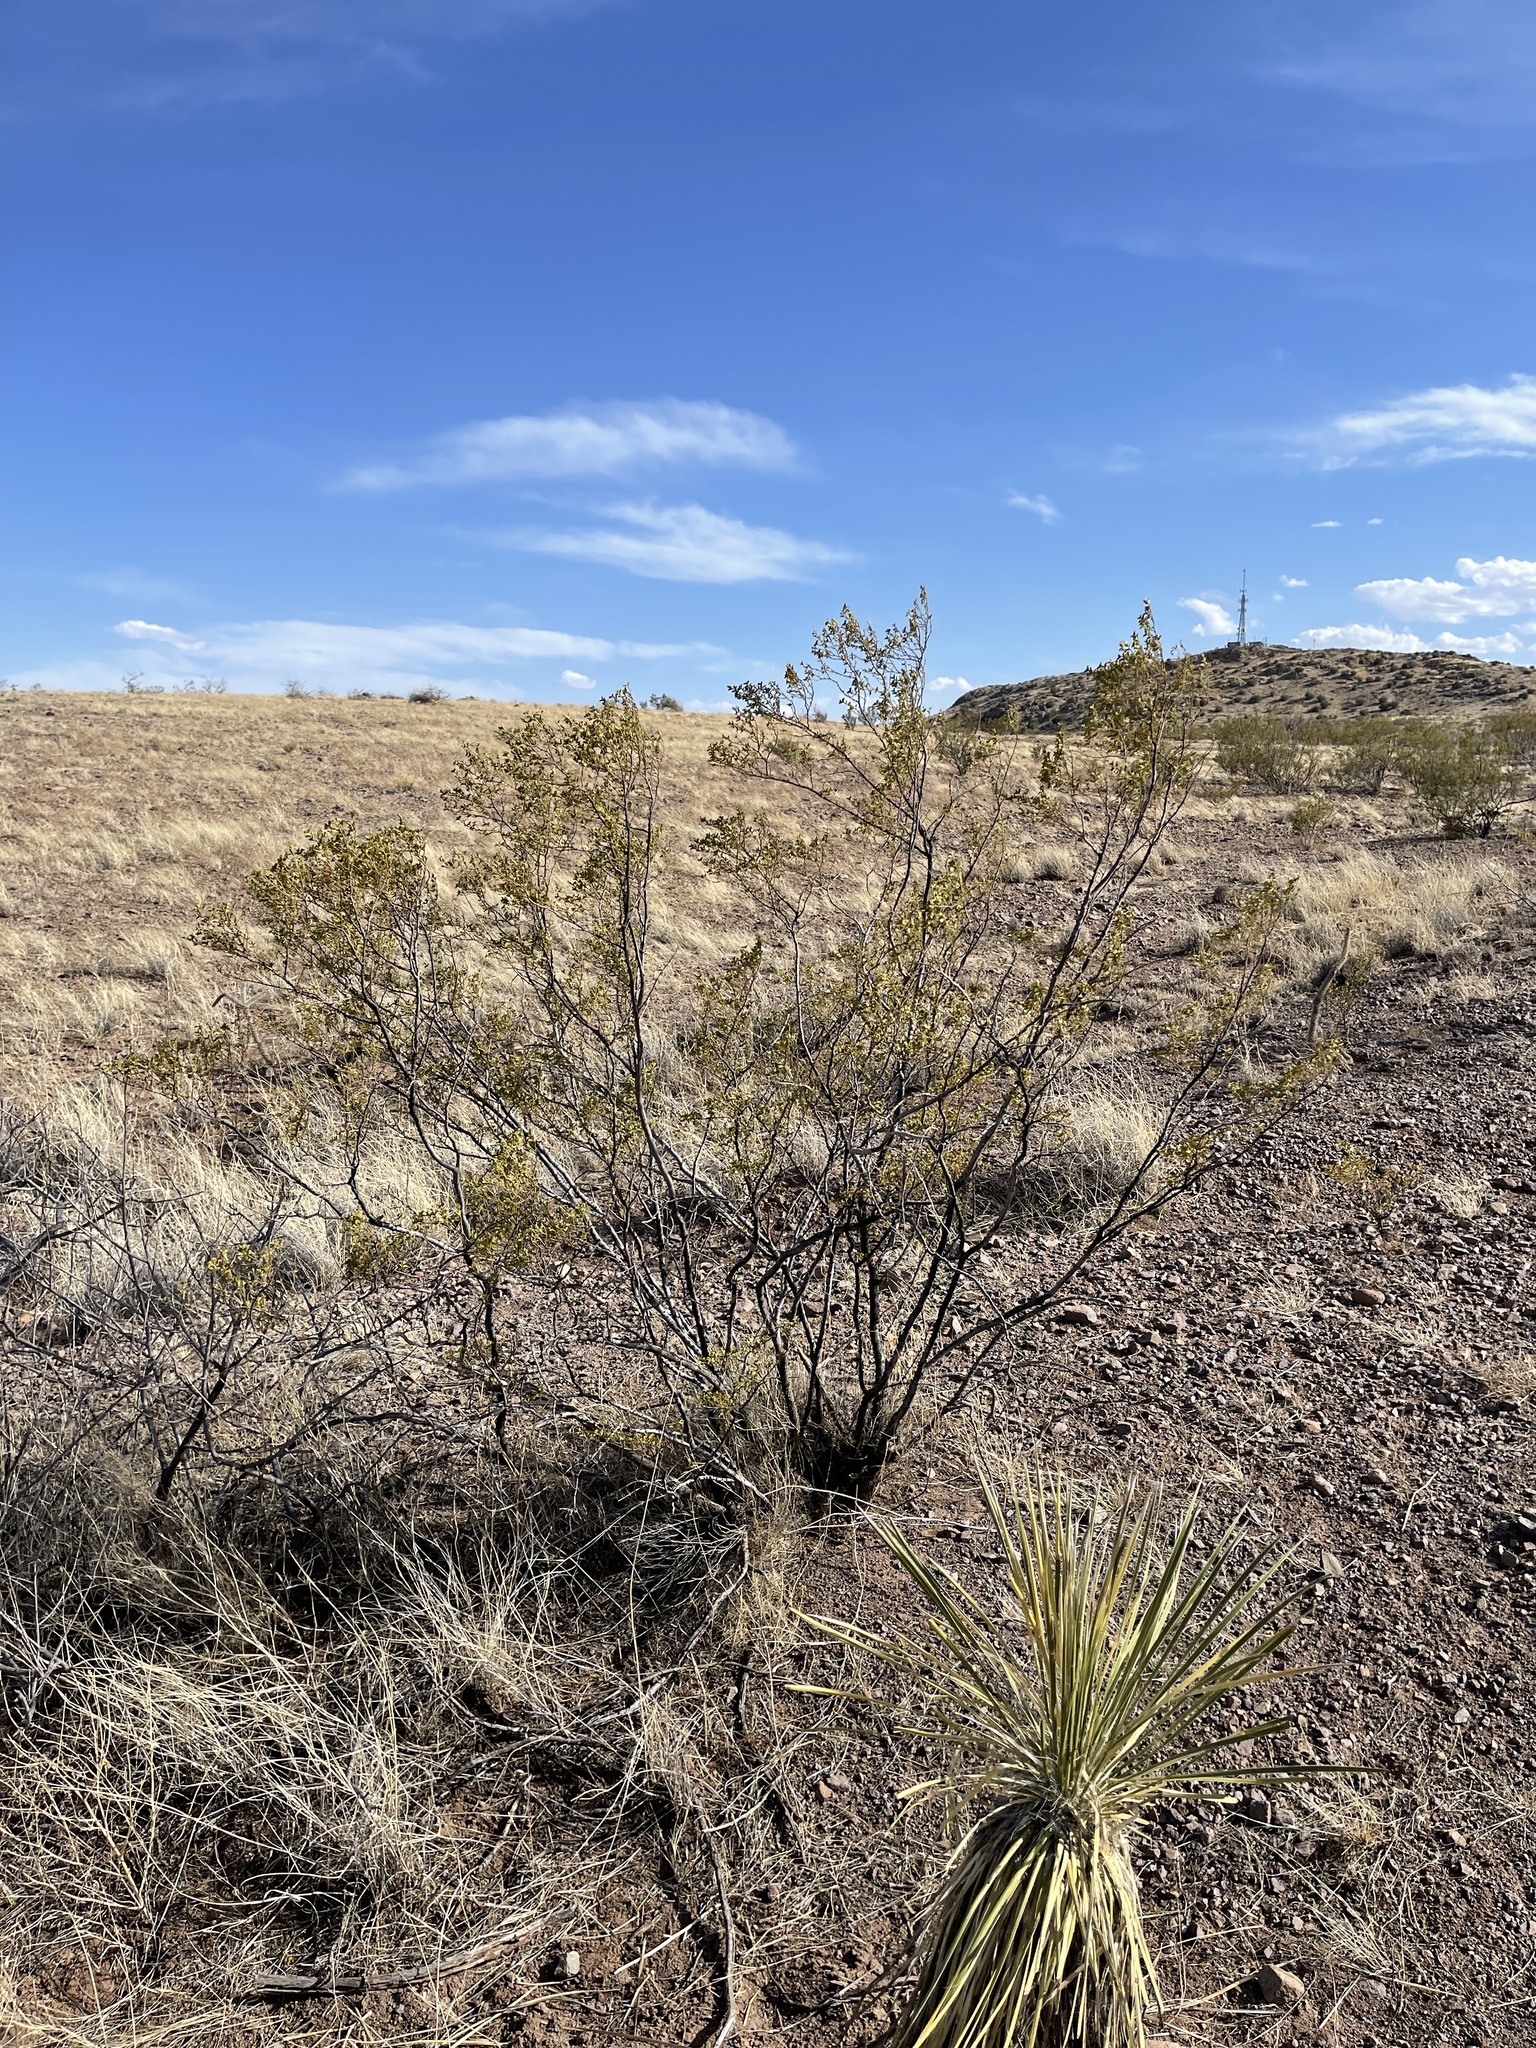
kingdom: Plantae
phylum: Tracheophyta
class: Magnoliopsida
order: Zygophyllales
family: Zygophyllaceae
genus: Larrea
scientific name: Larrea tridentata
